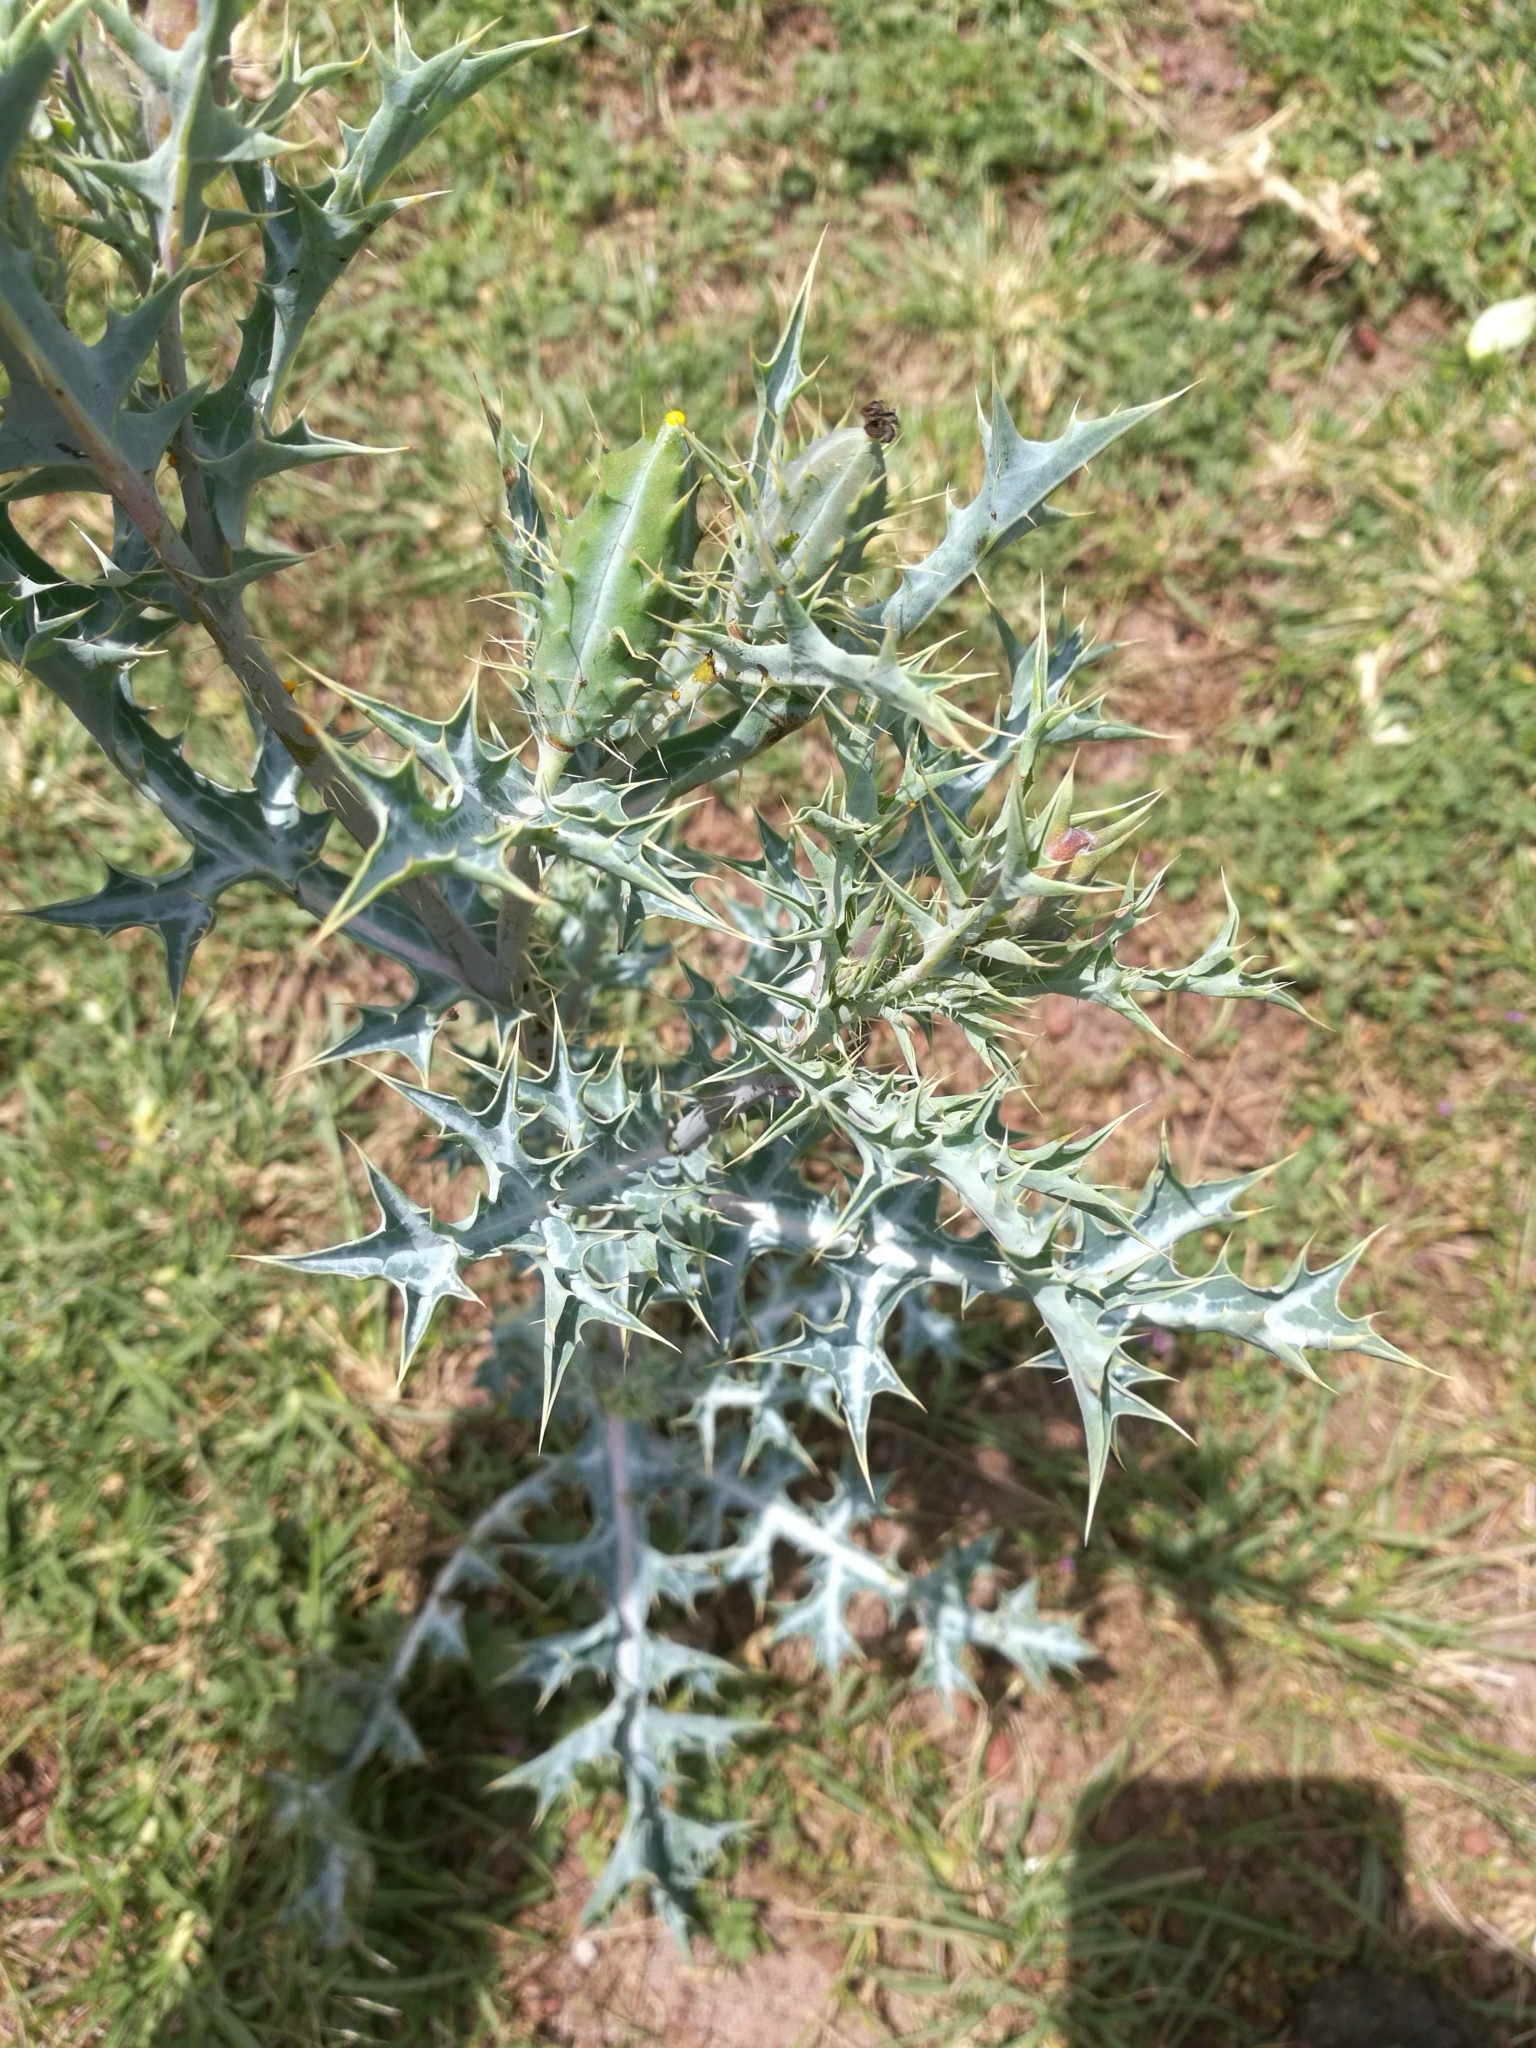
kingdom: Plantae
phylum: Tracheophyta
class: Magnoliopsida
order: Ranunculales
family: Papaveraceae
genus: Argemone
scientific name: Argemone ochroleuca
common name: White-flower mexican-poppy
